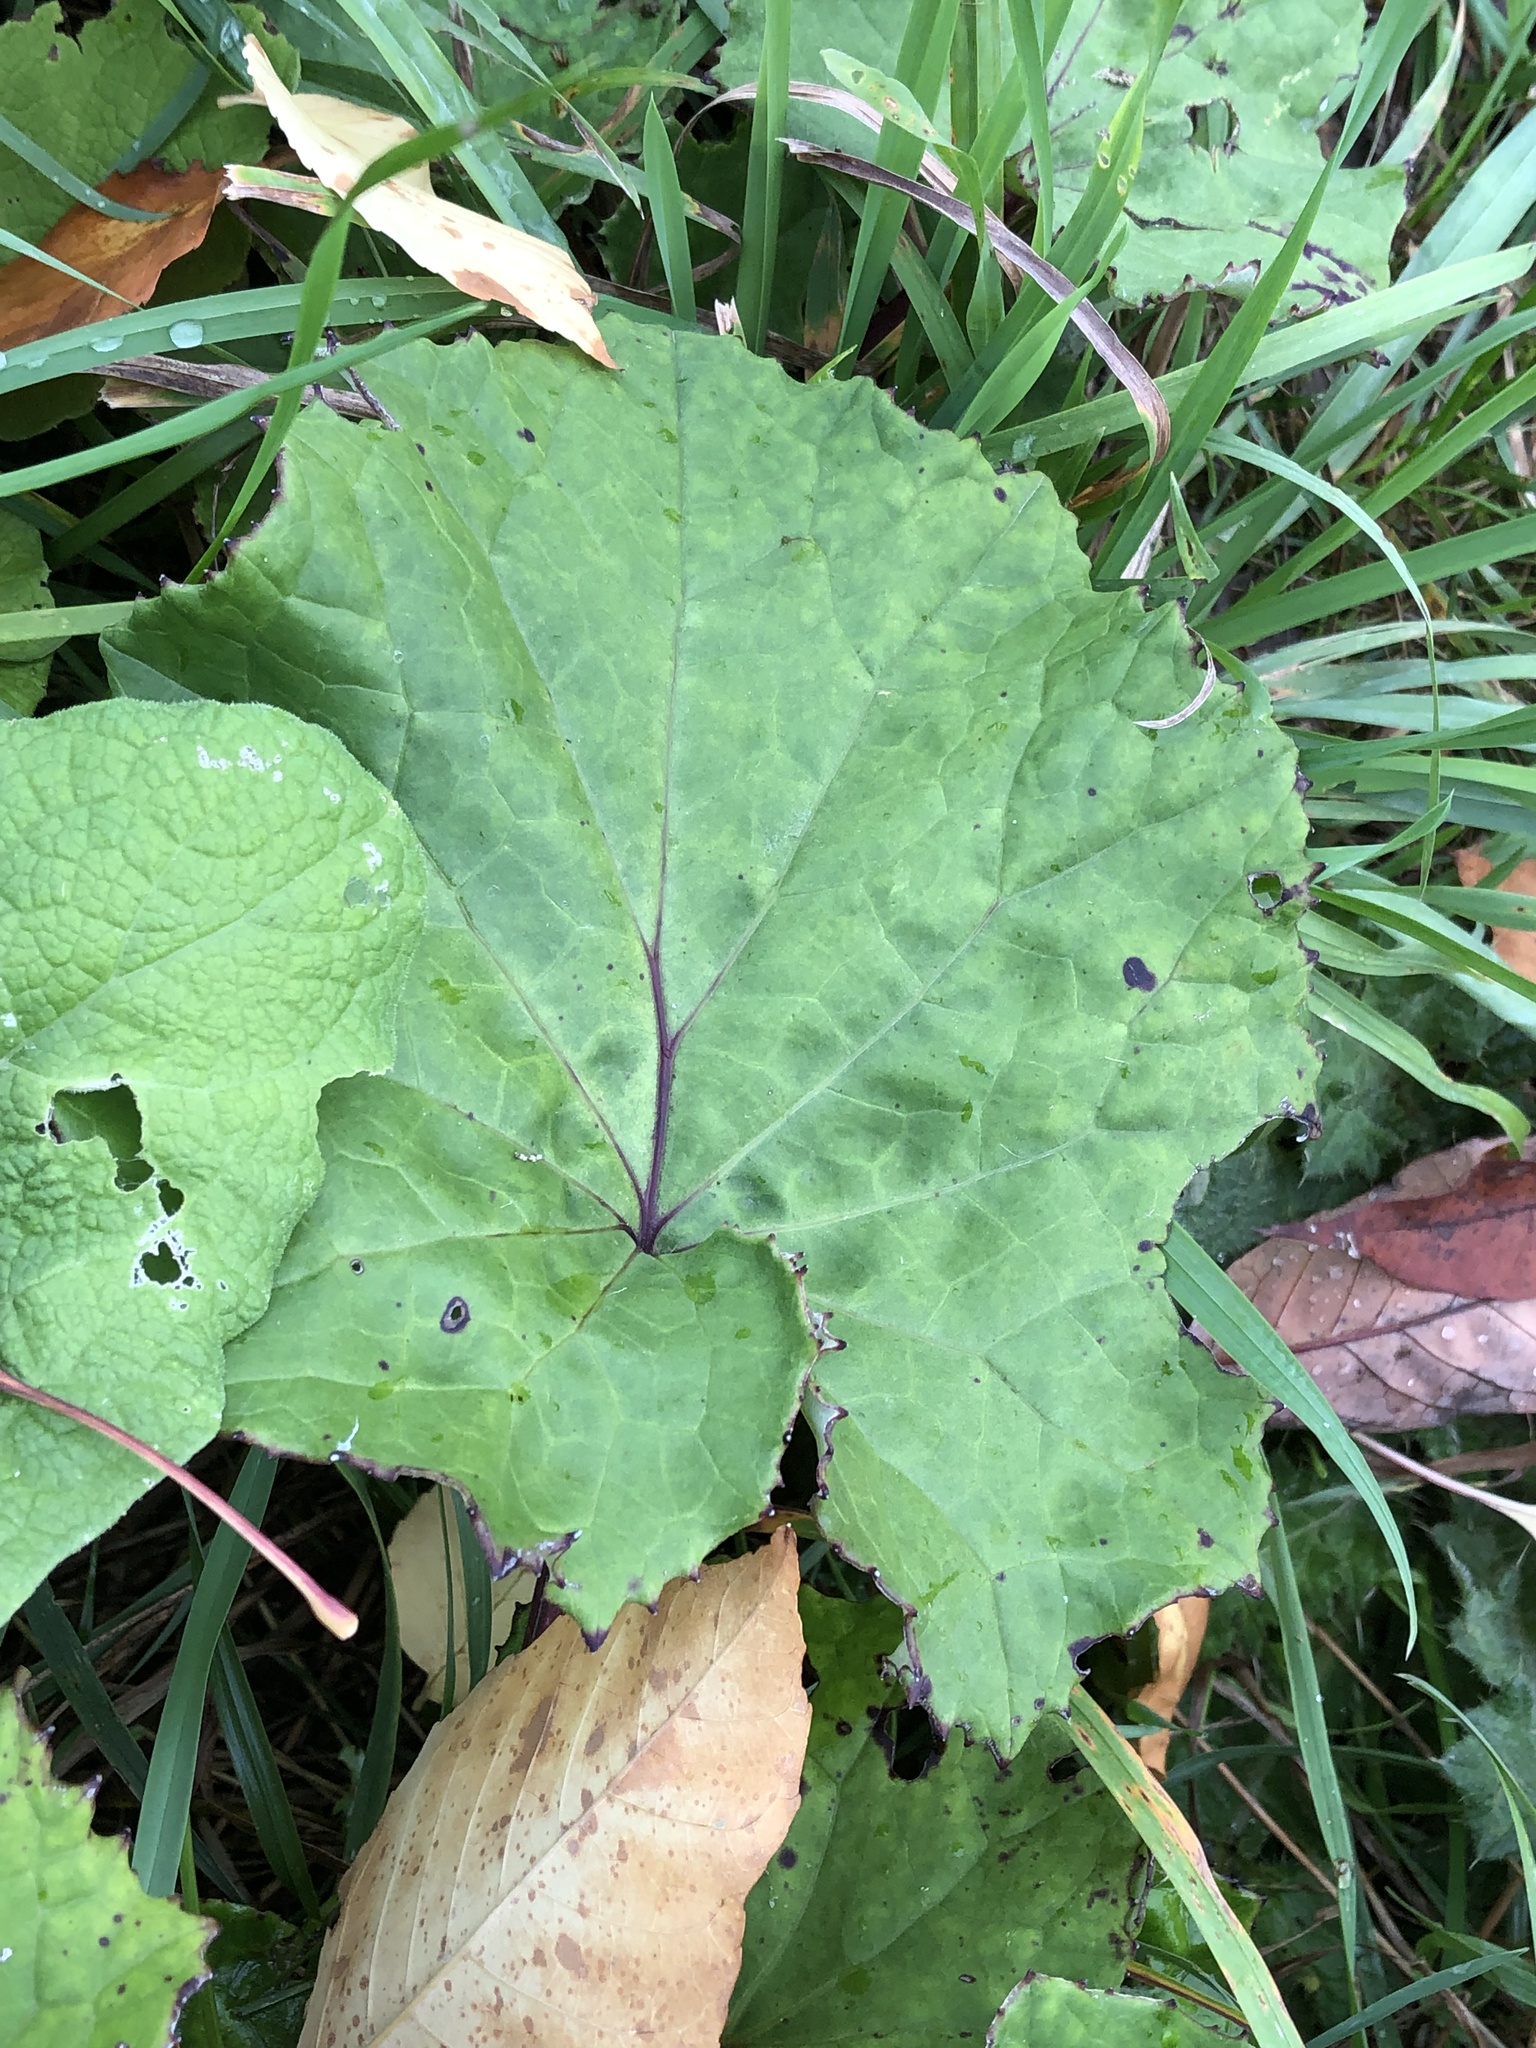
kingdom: Plantae
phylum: Tracheophyta
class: Magnoliopsida
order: Asterales
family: Asteraceae
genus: Tussilago
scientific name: Tussilago farfara
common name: Coltsfoot
